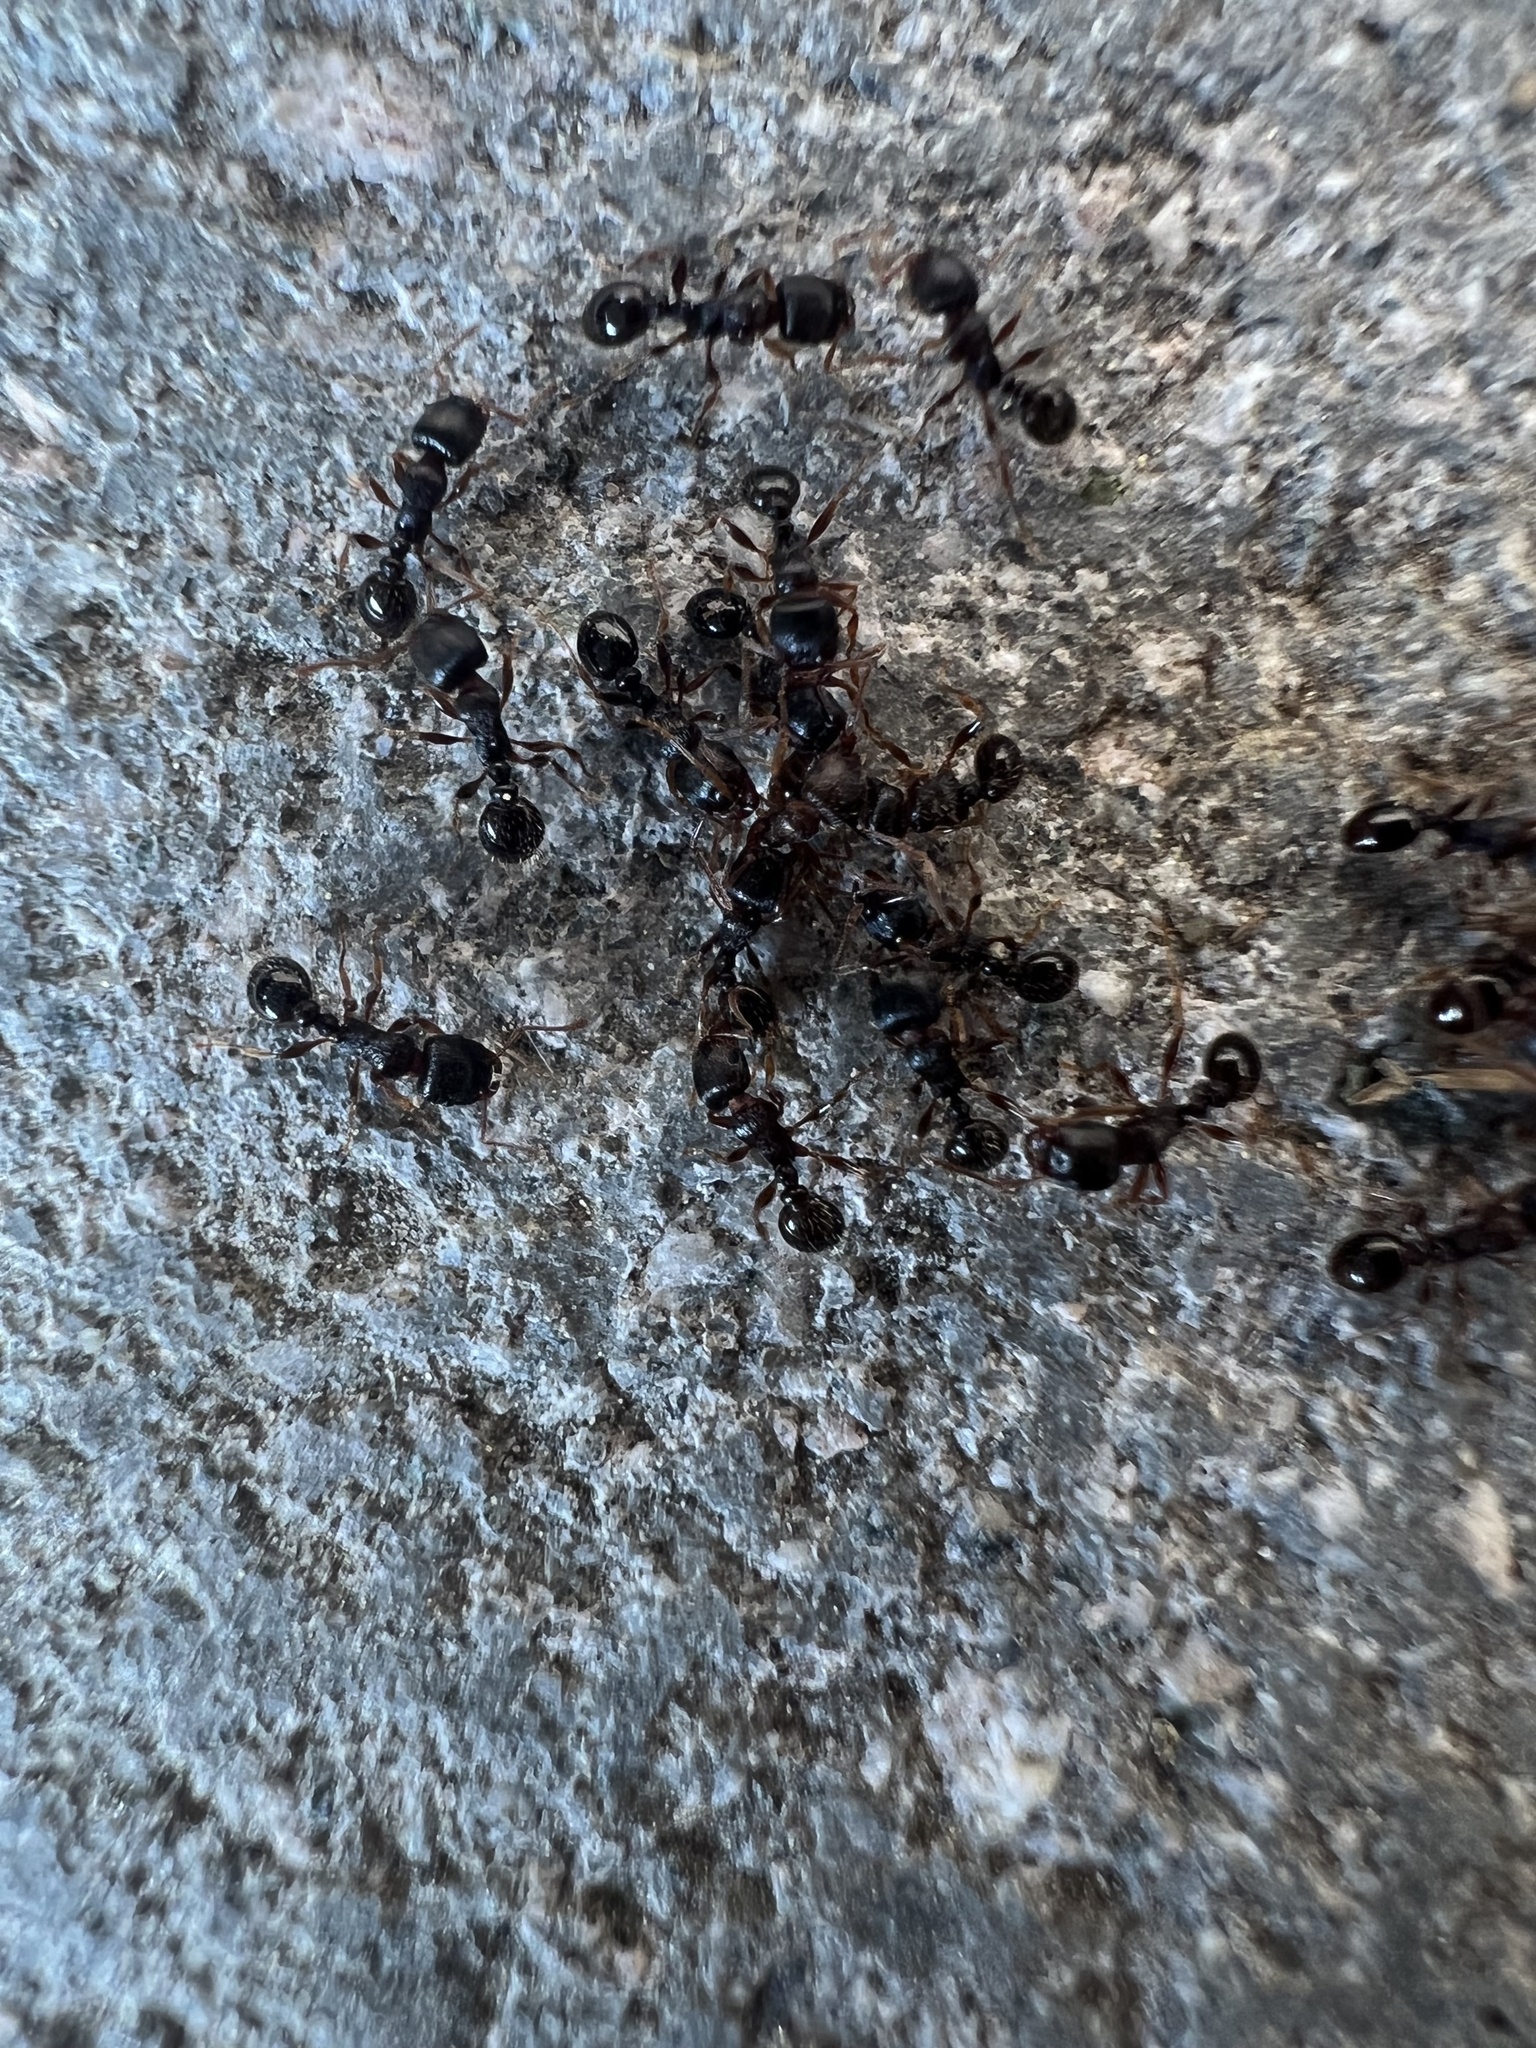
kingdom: Animalia
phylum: Arthropoda
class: Insecta
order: Hymenoptera
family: Formicidae
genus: Tetramorium
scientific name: Tetramorium immigrans
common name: Pavement ant
